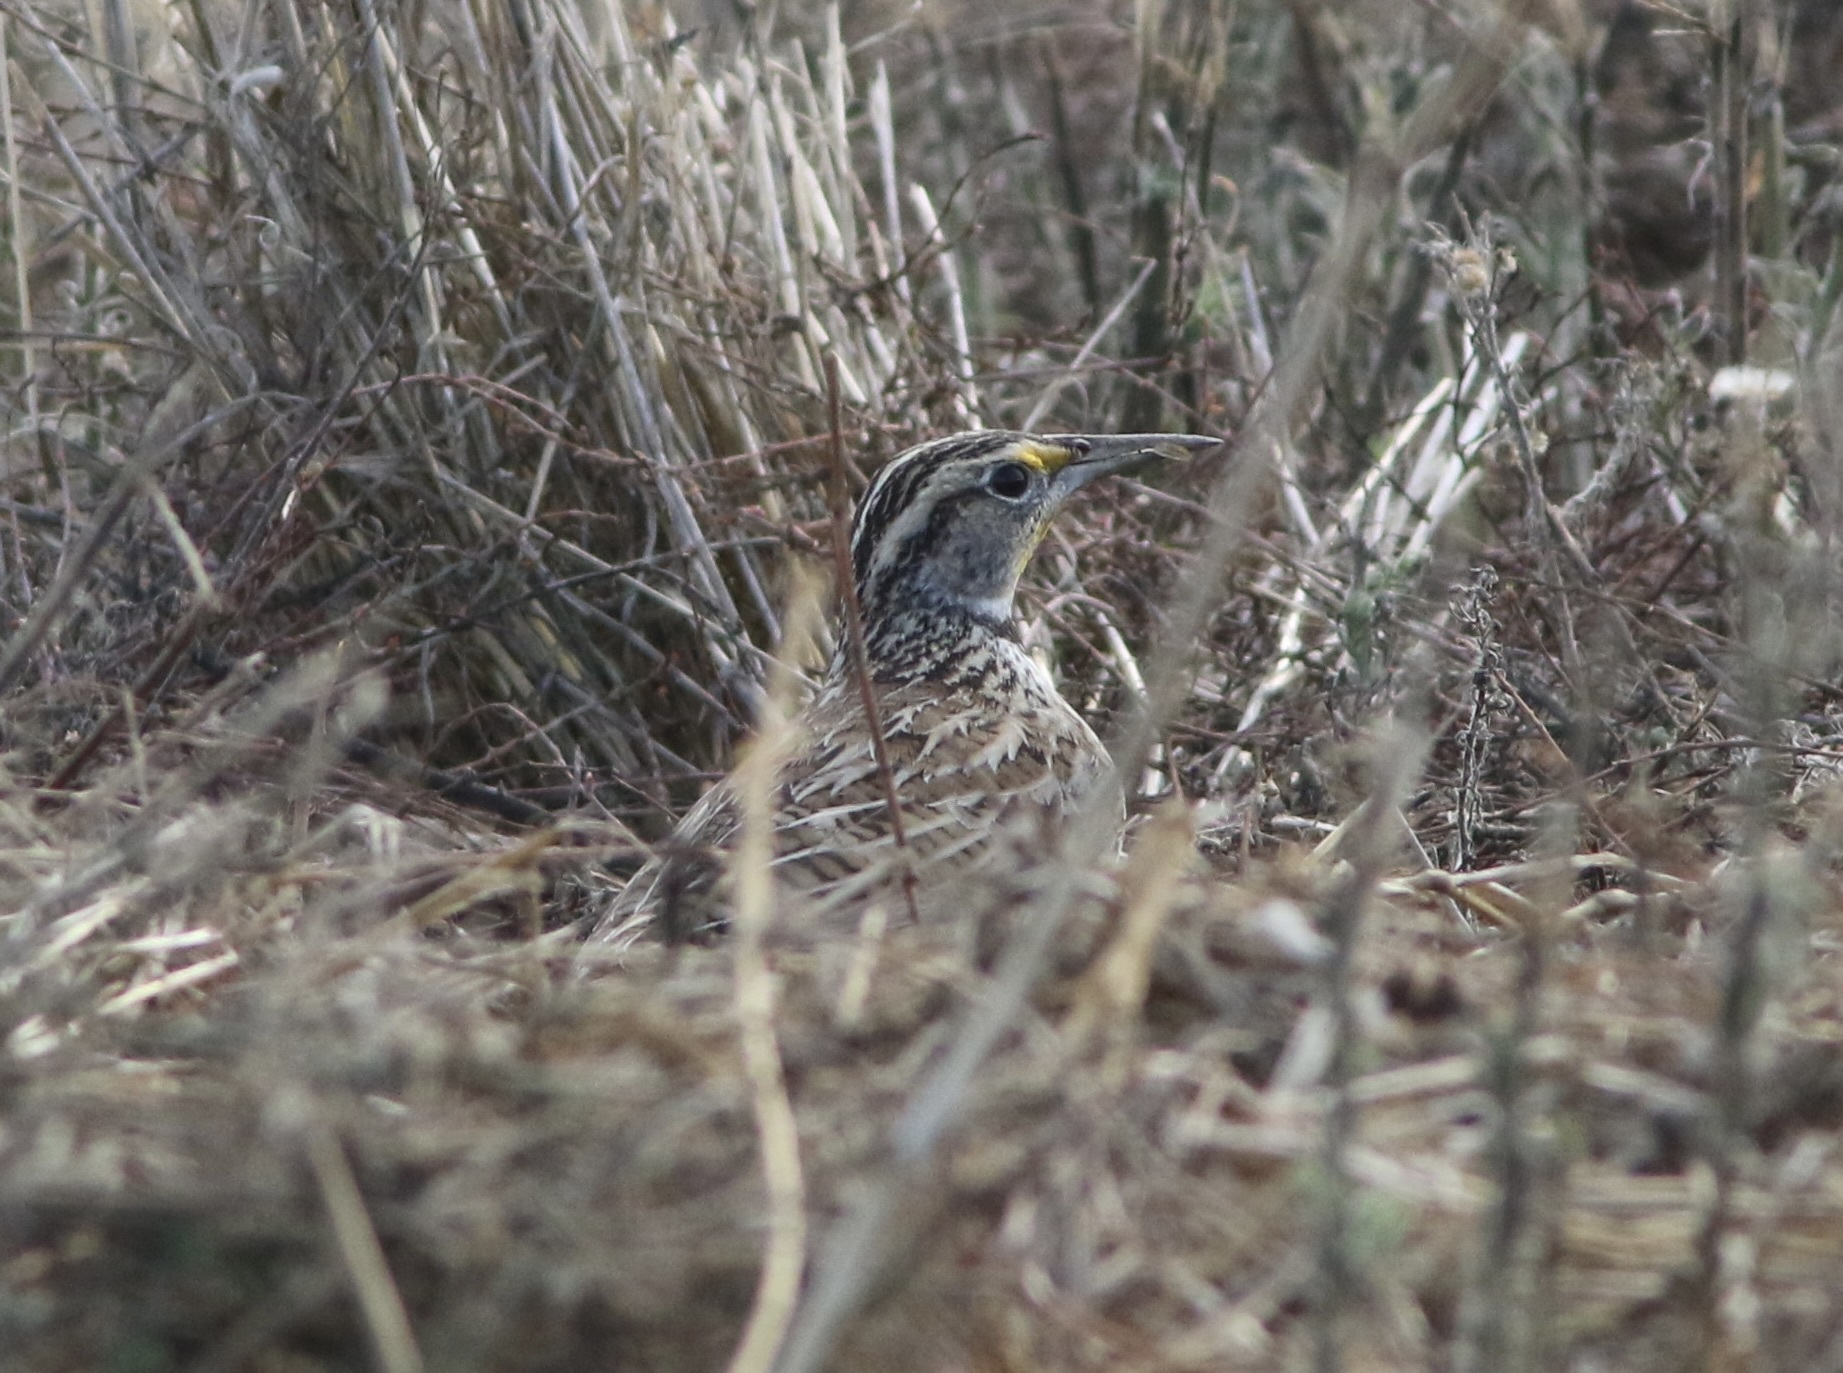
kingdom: Animalia
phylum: Chordata
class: Aves
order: Passeriformes
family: Icteridae
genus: Sturnella
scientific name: Sturnella neglecta
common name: Western meadowlark
